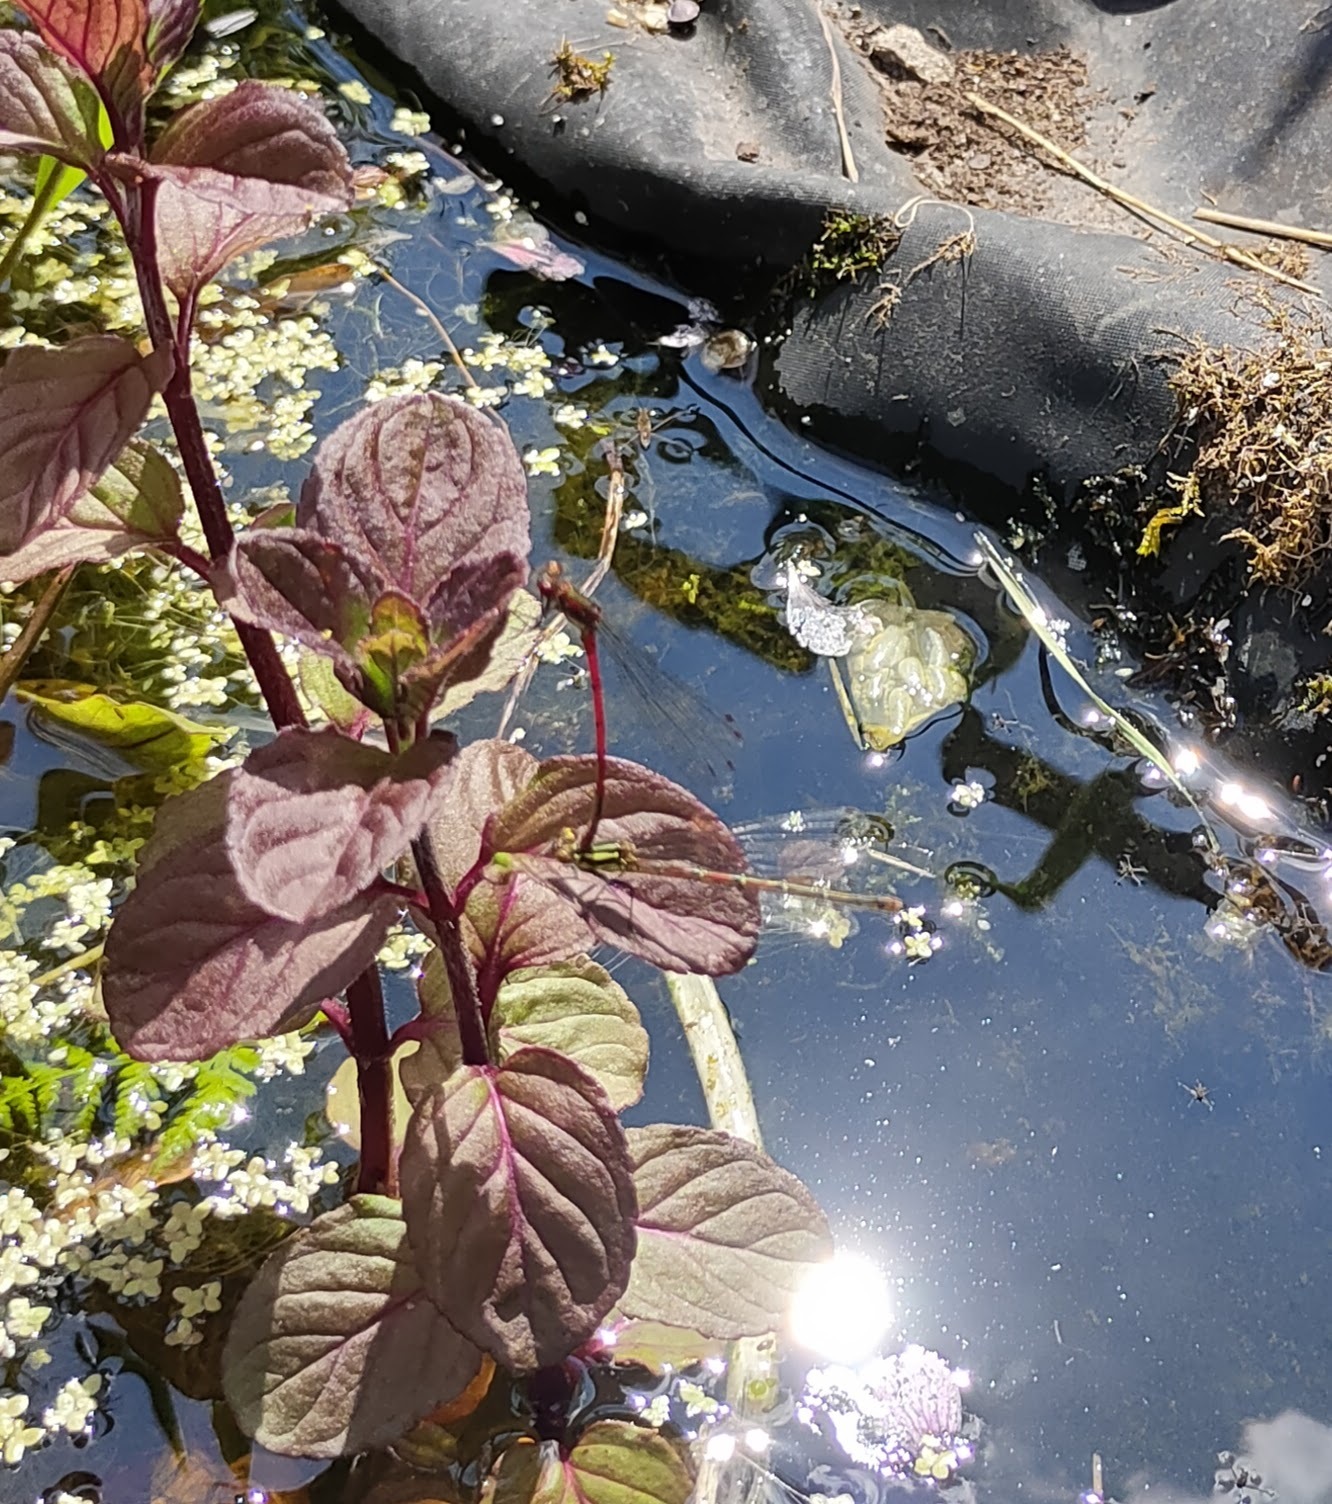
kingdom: Animalia
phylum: Arthropoda
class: Insecta
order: Odonata
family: Coenagrionidae
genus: Pyrrhosoma
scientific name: Pyrrhosoma nymphula
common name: Large red damsel
